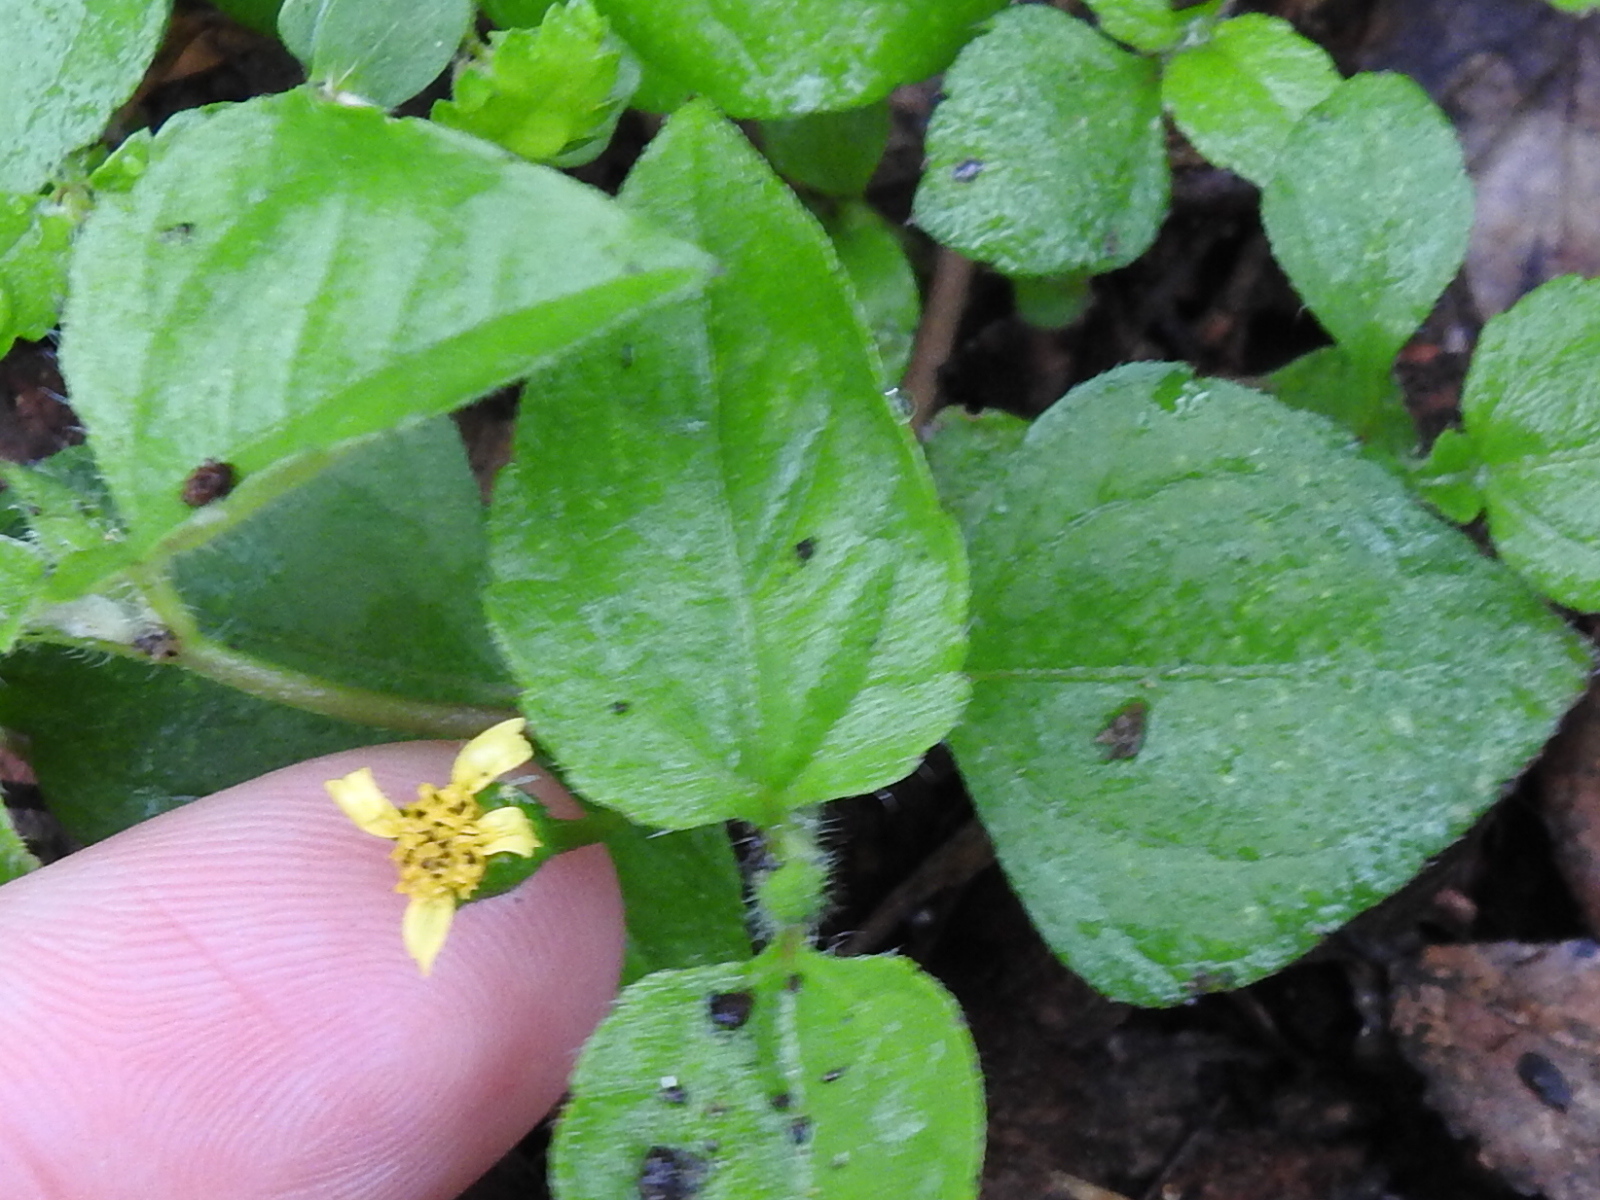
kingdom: Plantae
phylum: Tracheophyta
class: Magnoliopsida
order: Asterales
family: Asteraceae
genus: Calyptocarpus
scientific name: Calyptocarpus vialis
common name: Straggler daisy
